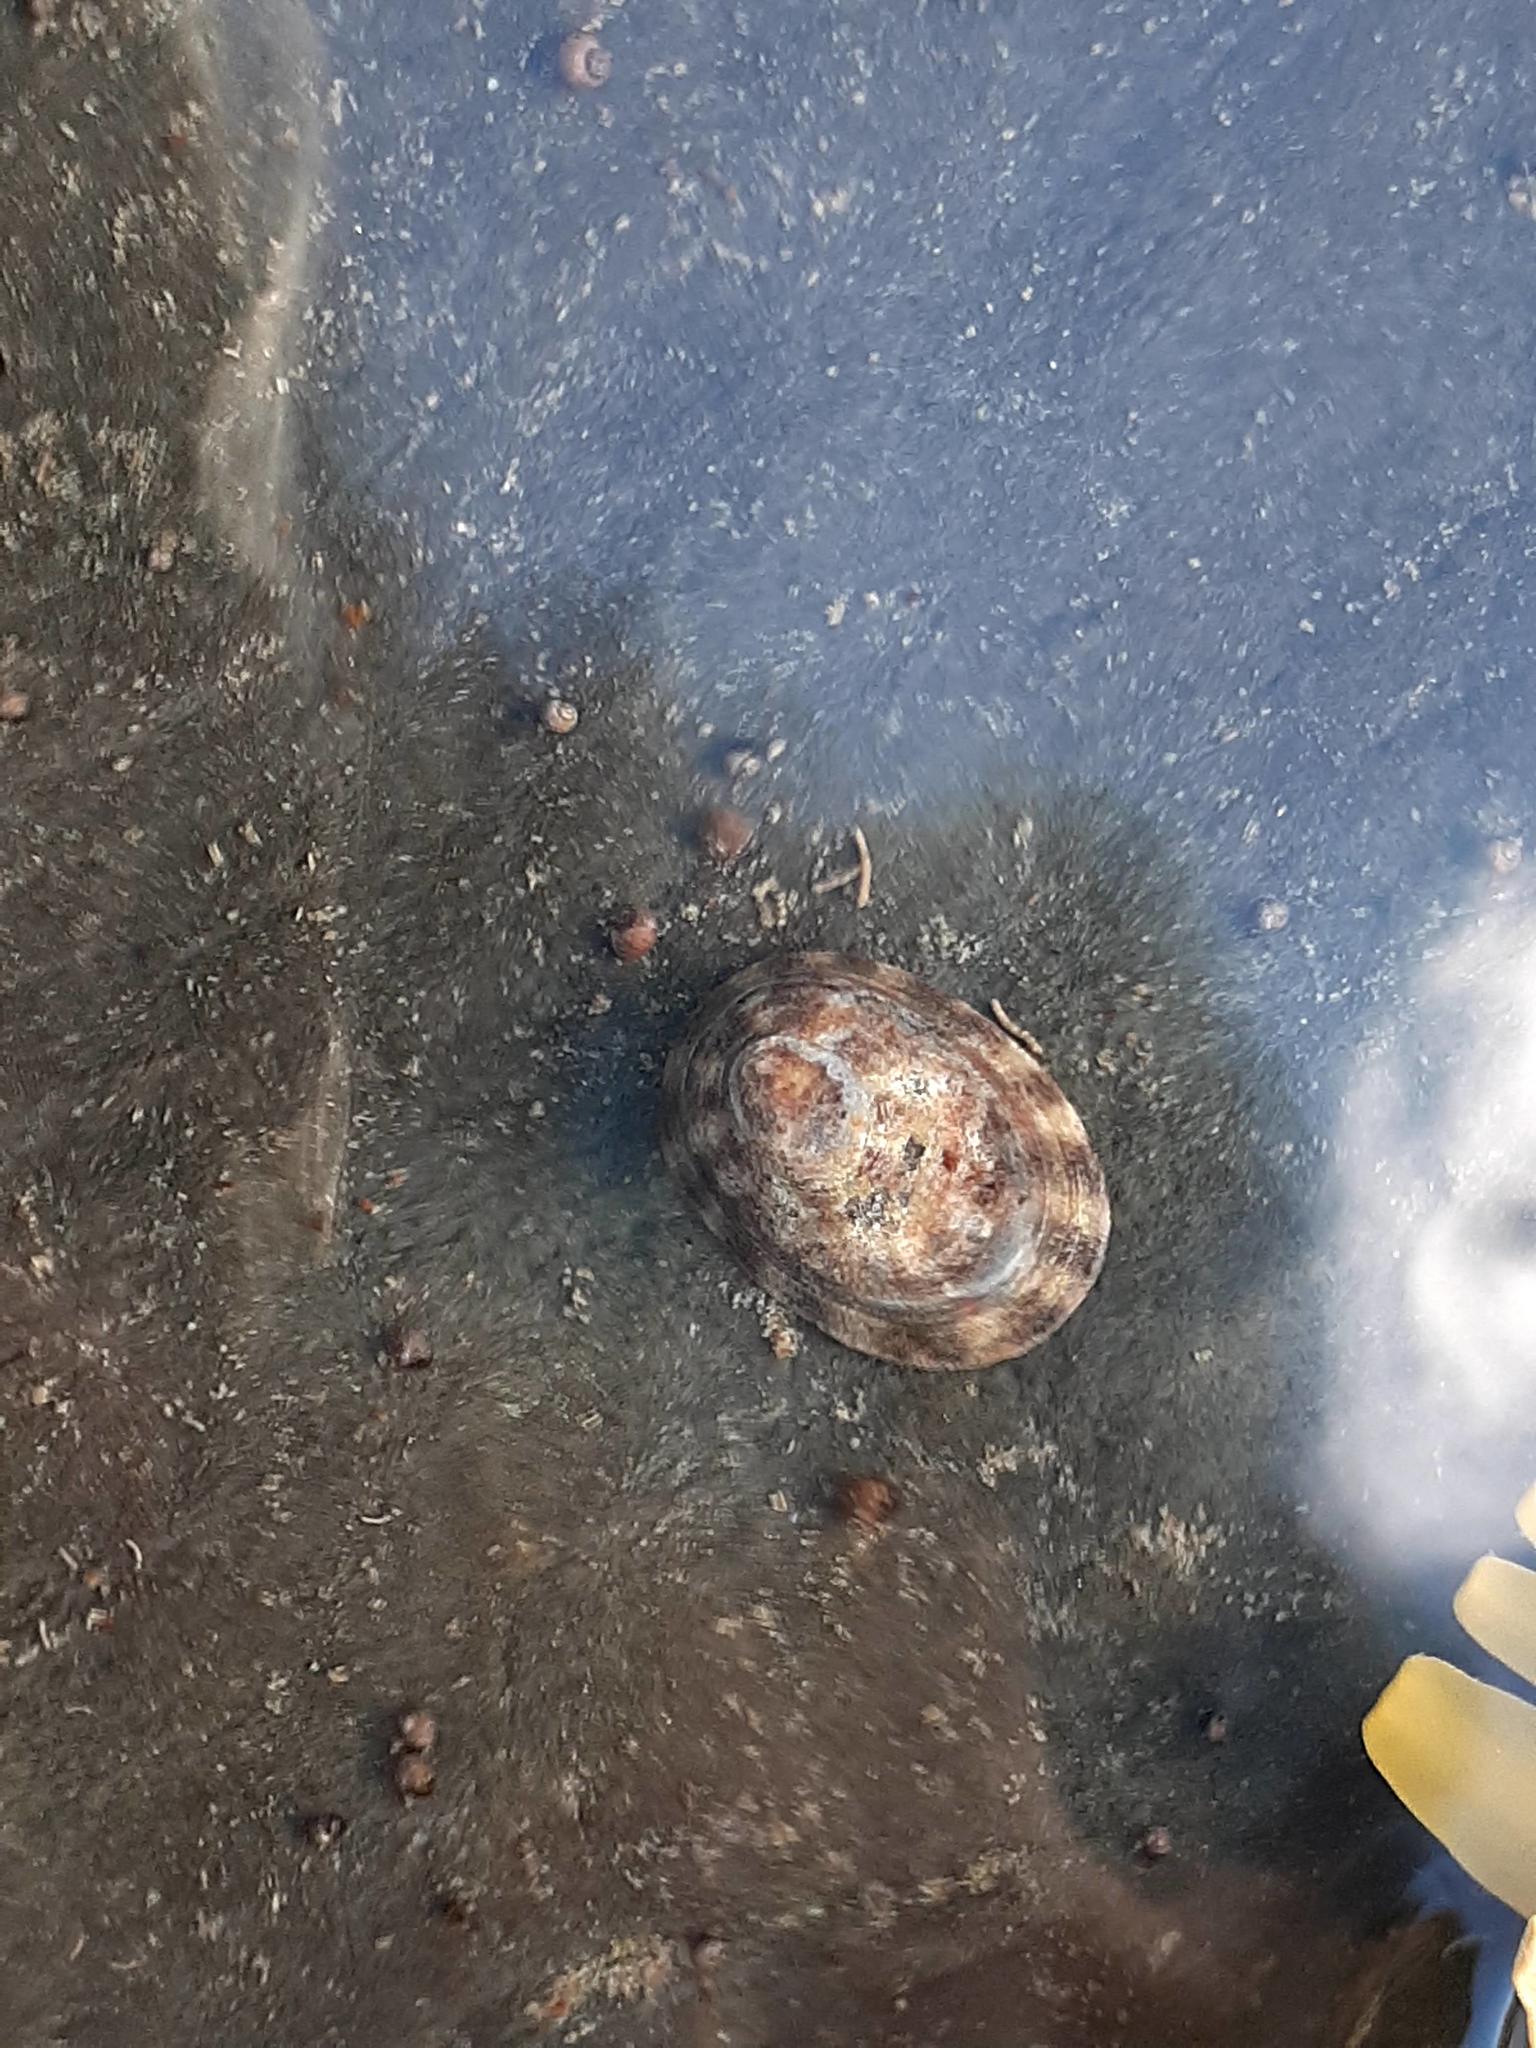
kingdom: Animalia
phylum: Mollusca
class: Gastropoda
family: Lottiidae
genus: Testudinalia
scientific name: Testudinalia testudinalis
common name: Common tortoiseshell limpet
